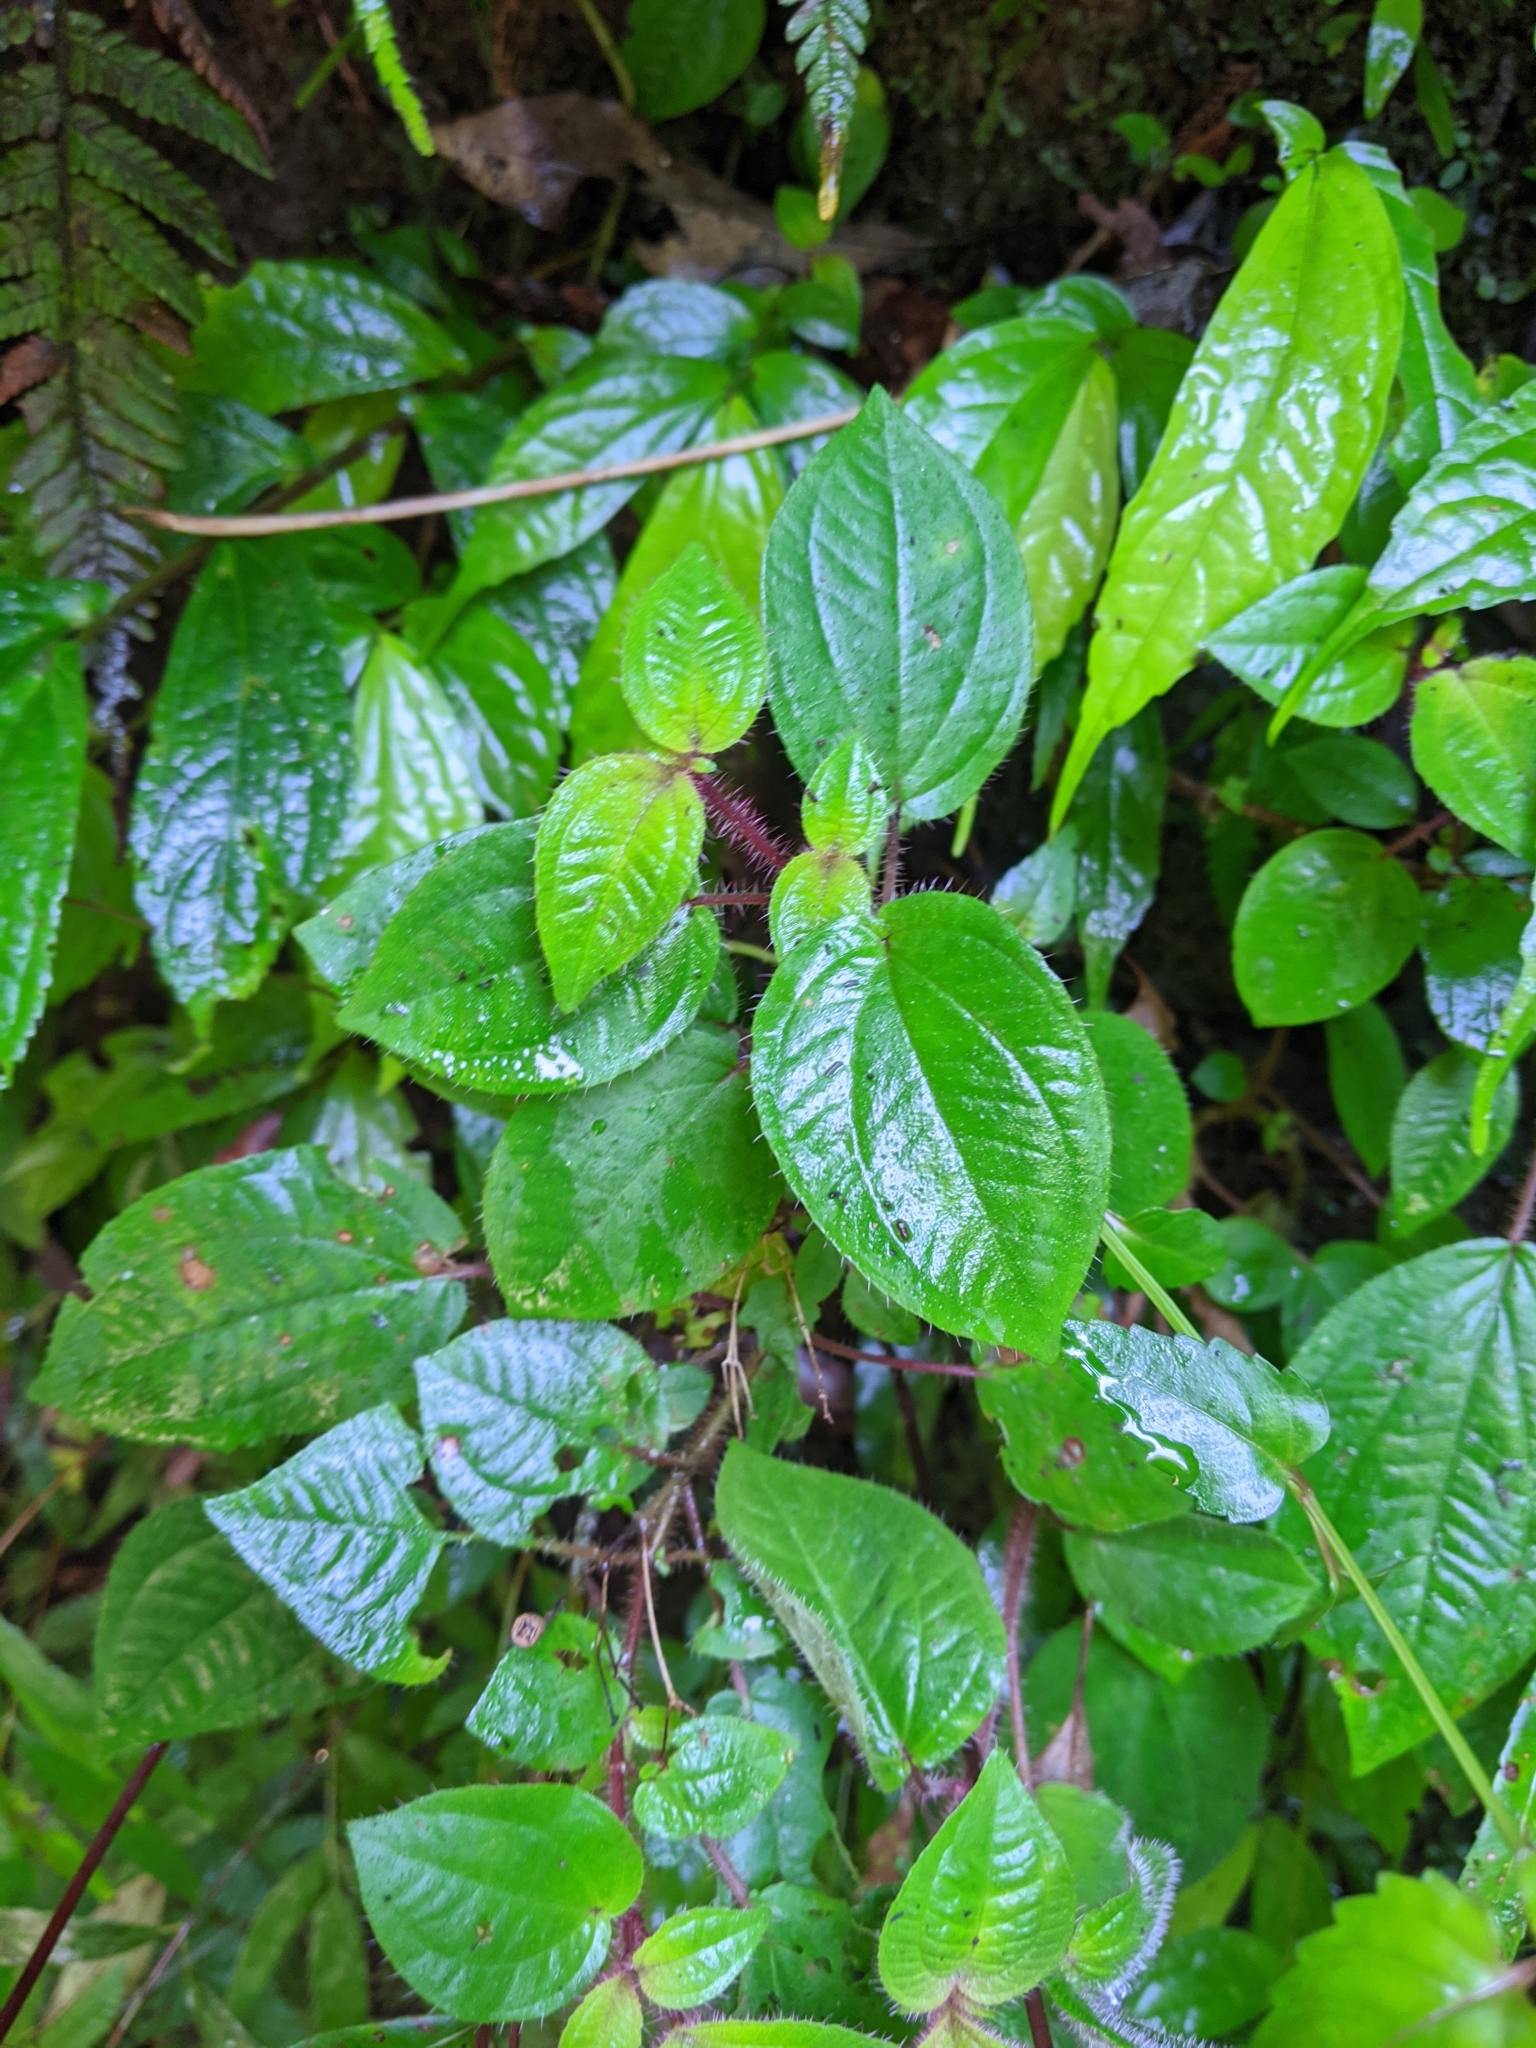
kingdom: Plantae
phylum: Tracheophyta
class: Magnoliopsida
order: Myrtales
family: Melastomataceae
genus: Bredia
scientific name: Bredia hirsuta
